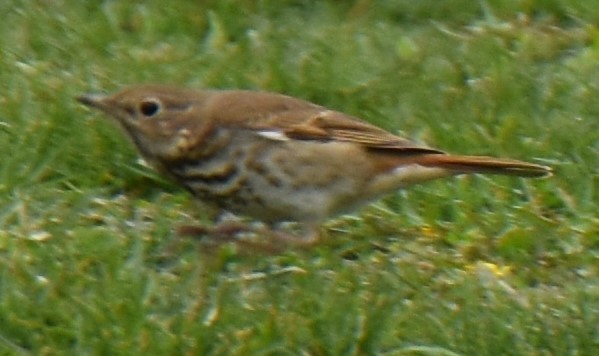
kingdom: Animalia
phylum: Chordata
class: Aves
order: Passeriformes
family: Turdidae
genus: Catharus
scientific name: Catharus guttatus
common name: Hermit thrush
